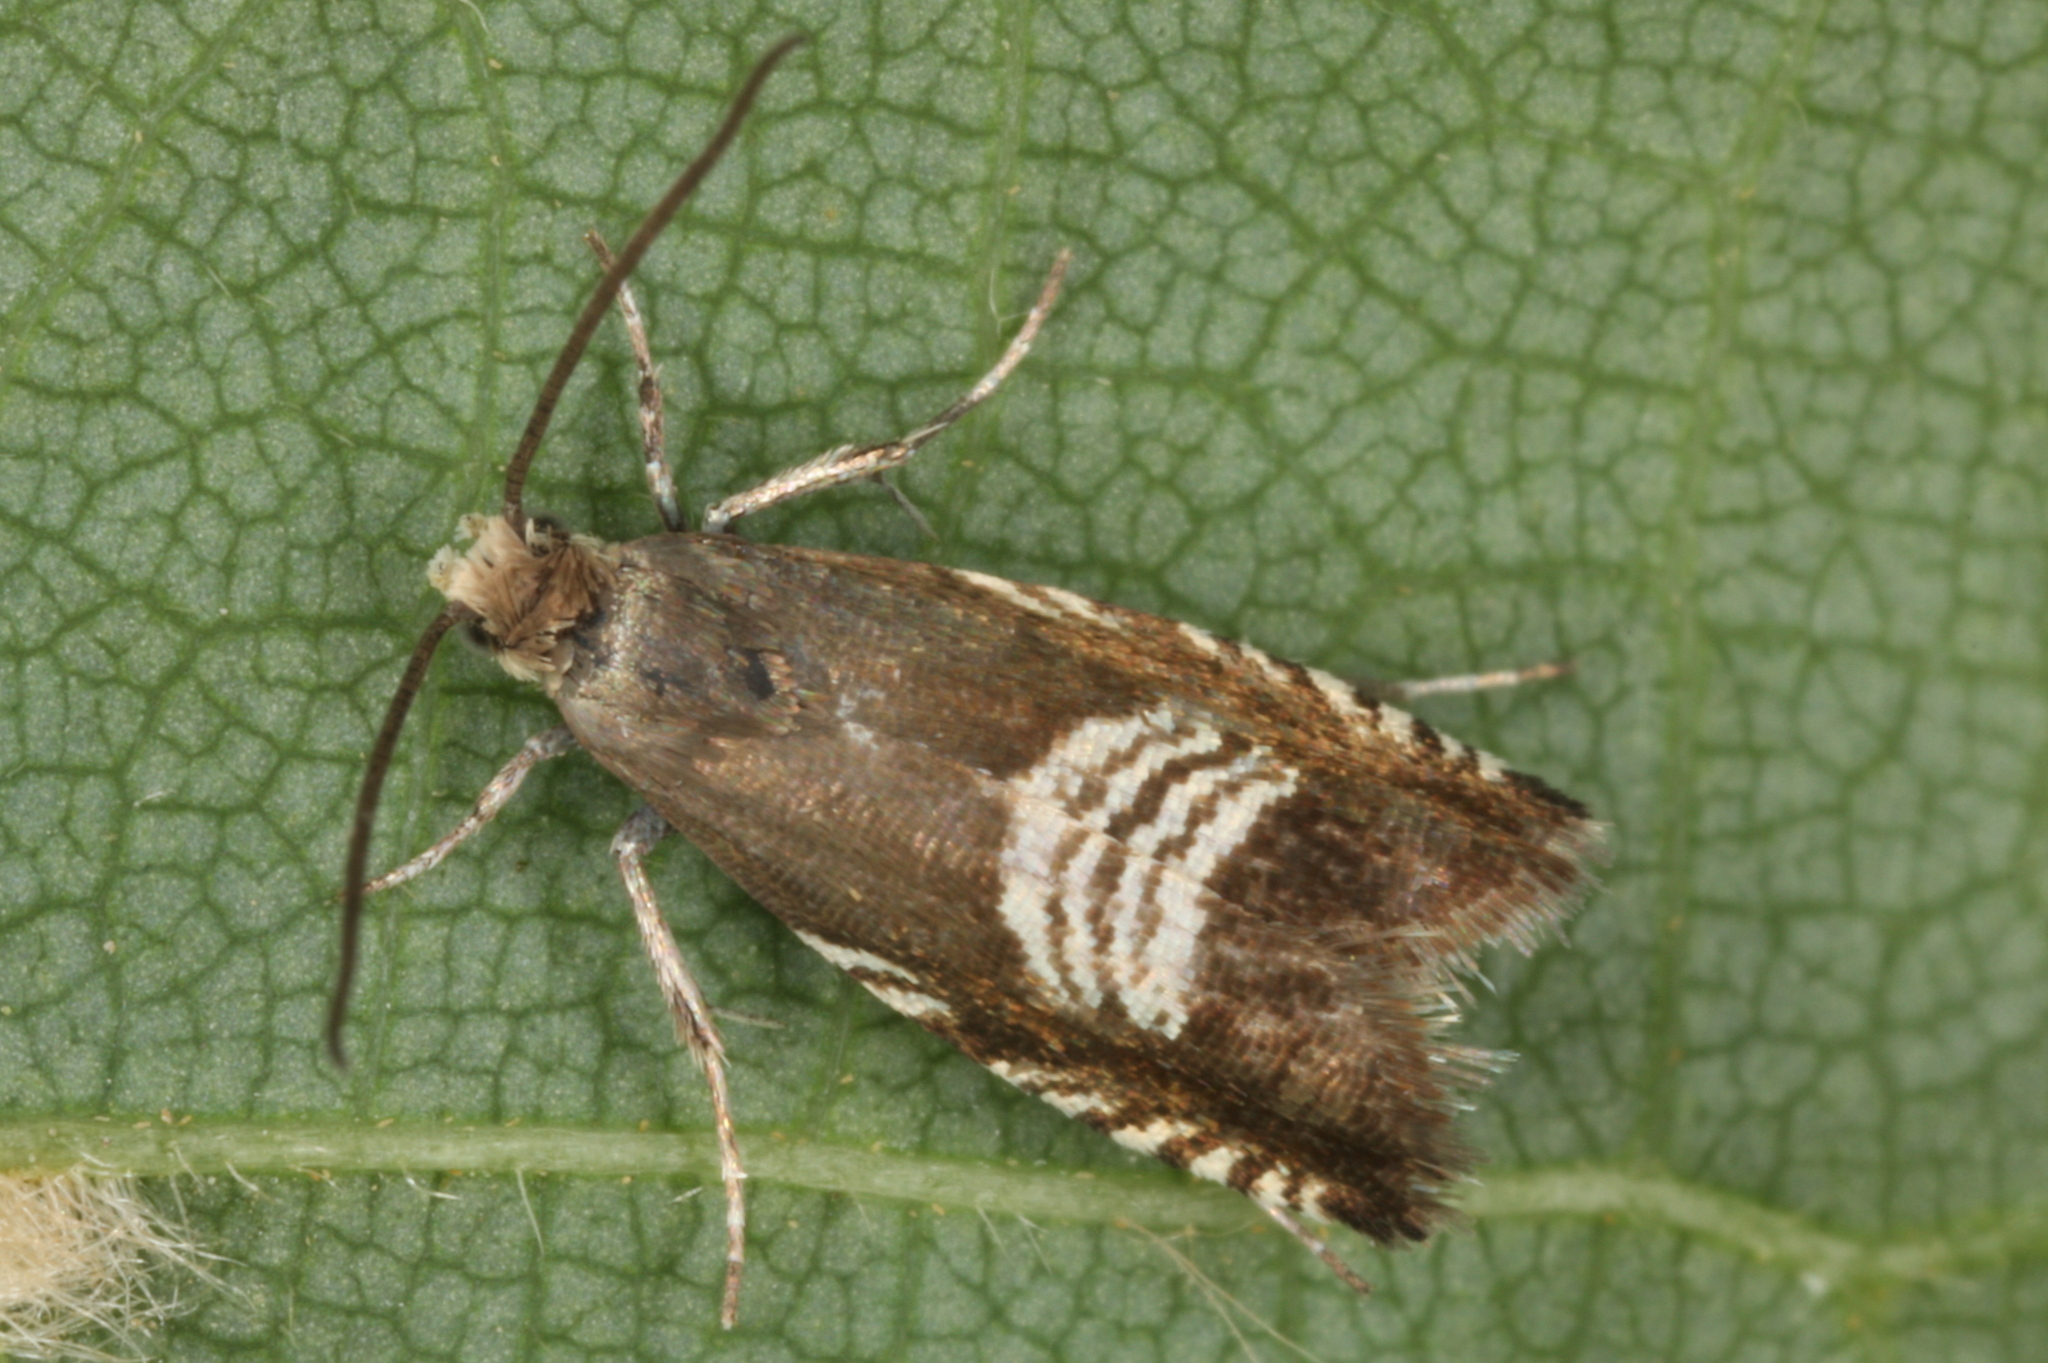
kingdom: Animalia
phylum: Arthropoda
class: Insecta
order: Lepidoptera
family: Tortricidae
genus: Grapholita
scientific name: Grapholita compositella
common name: Triple-stripe piercer
